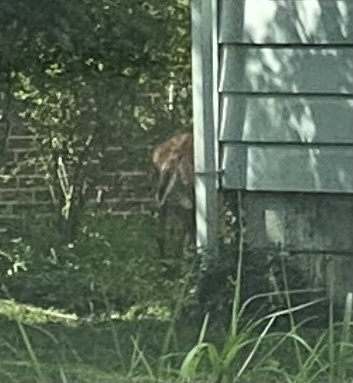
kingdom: Animalia
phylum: Chordata
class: Mammalia
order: Artiodactyla
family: Cervidae
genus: Odocoileus
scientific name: Odocoileus virginianus
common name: White-tailed deer
